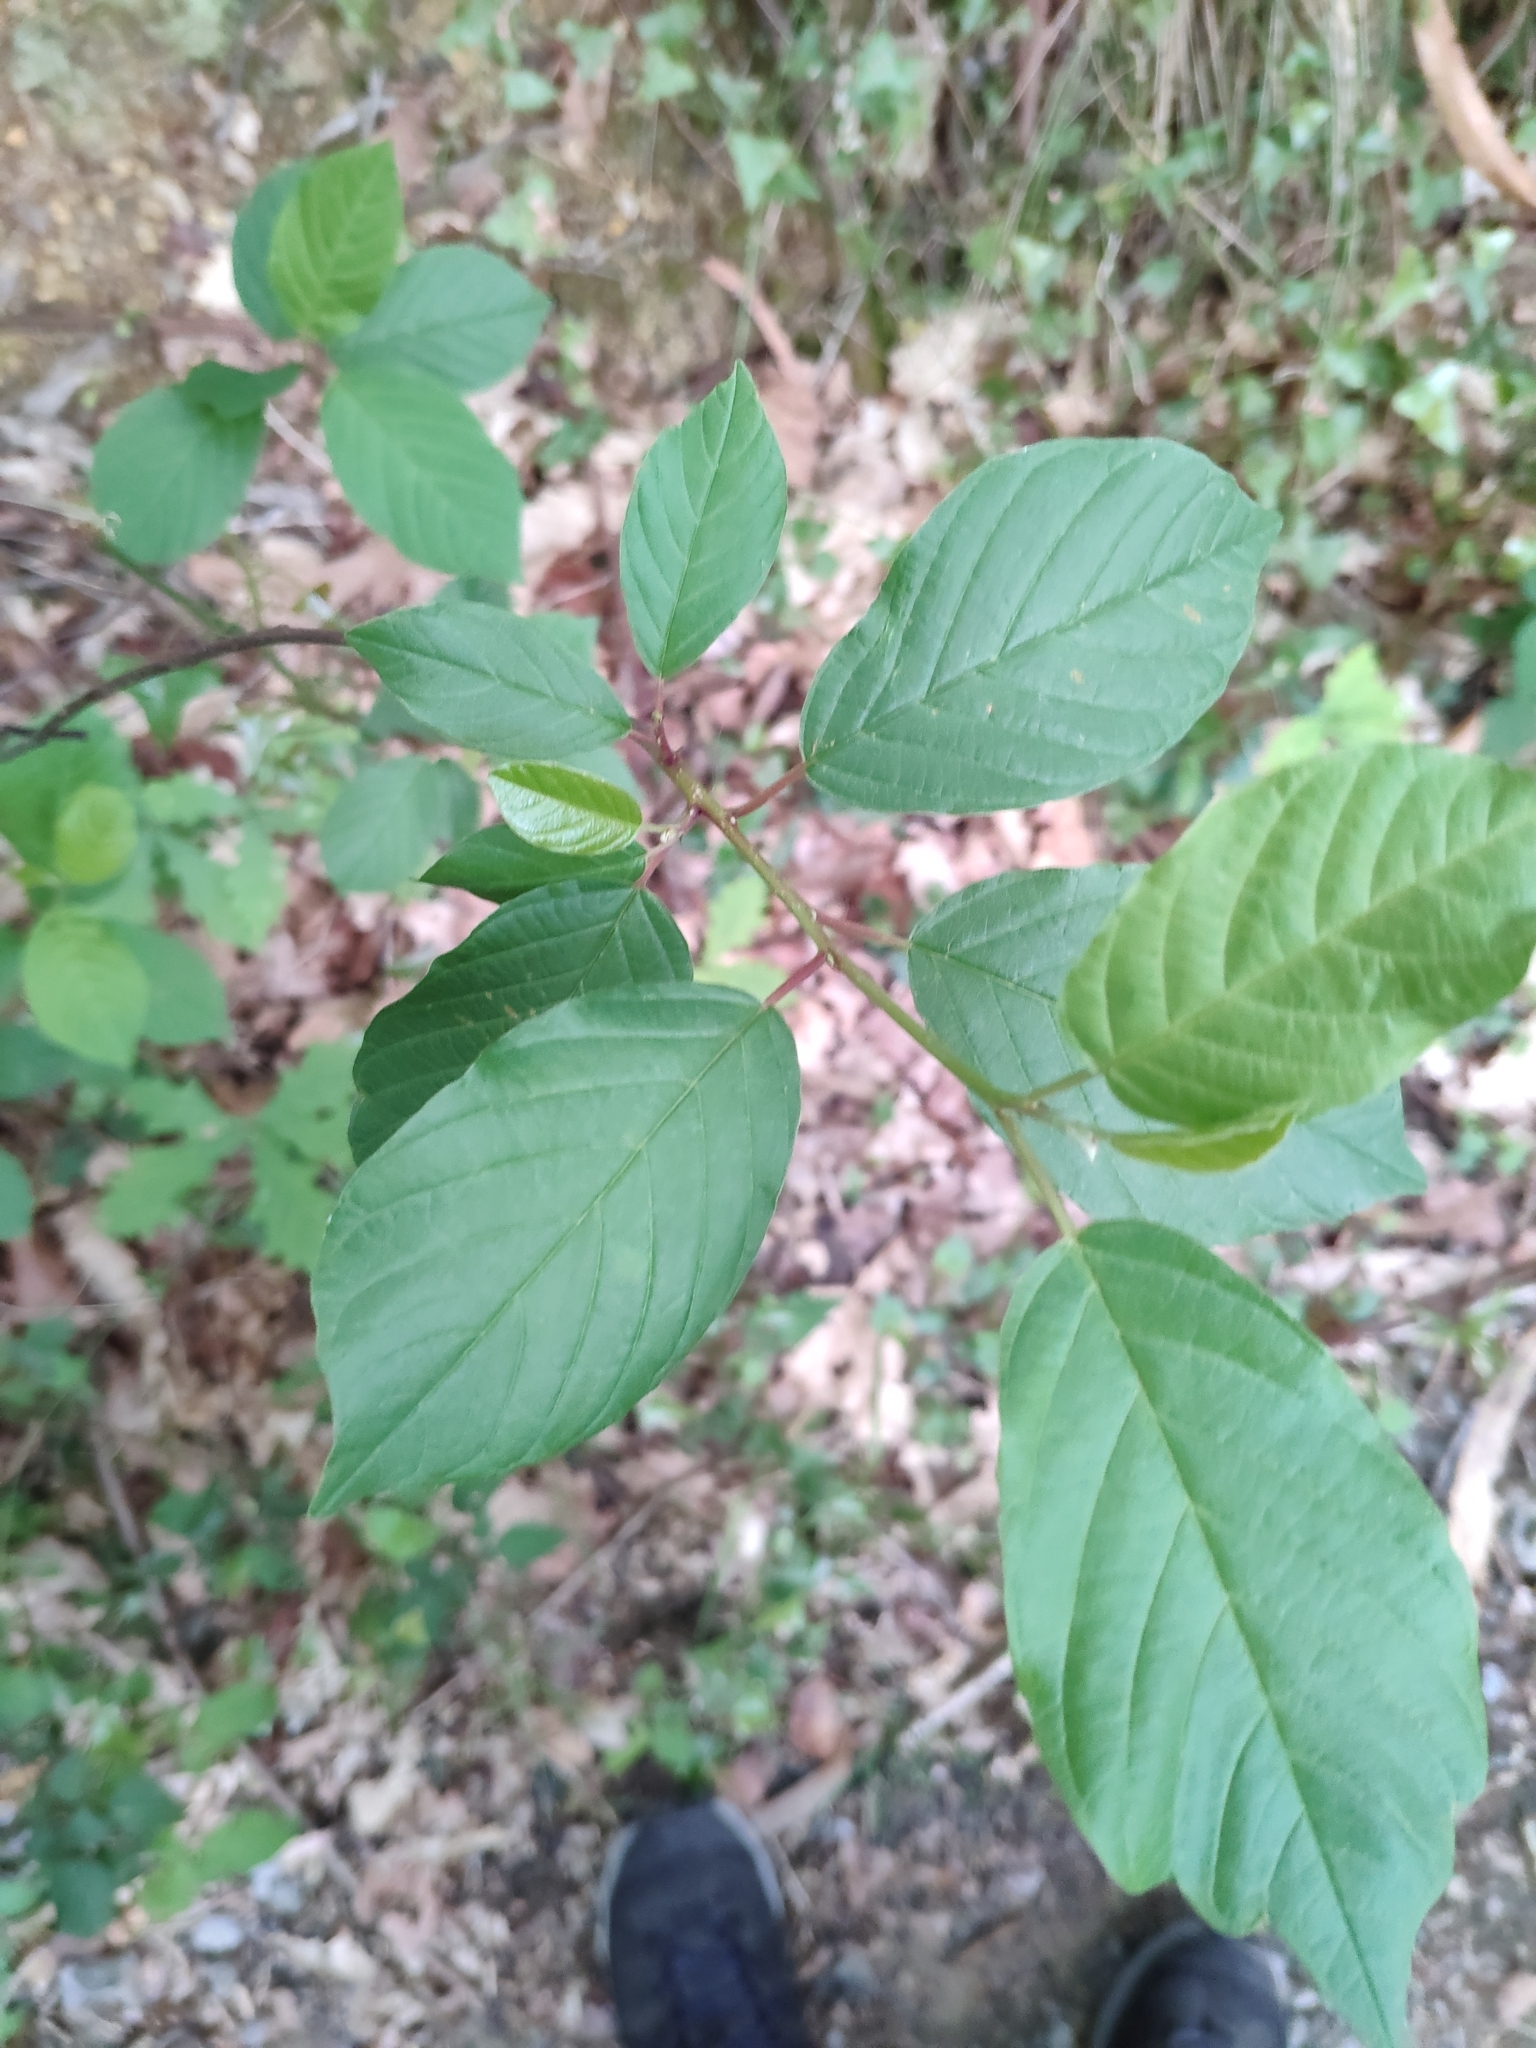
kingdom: Plantae
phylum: Tracheophyta
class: Magnoliopsida
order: Rosales
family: Rhamnaceae
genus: Frangula
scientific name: Frangula alnus
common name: Alder buckthorn
